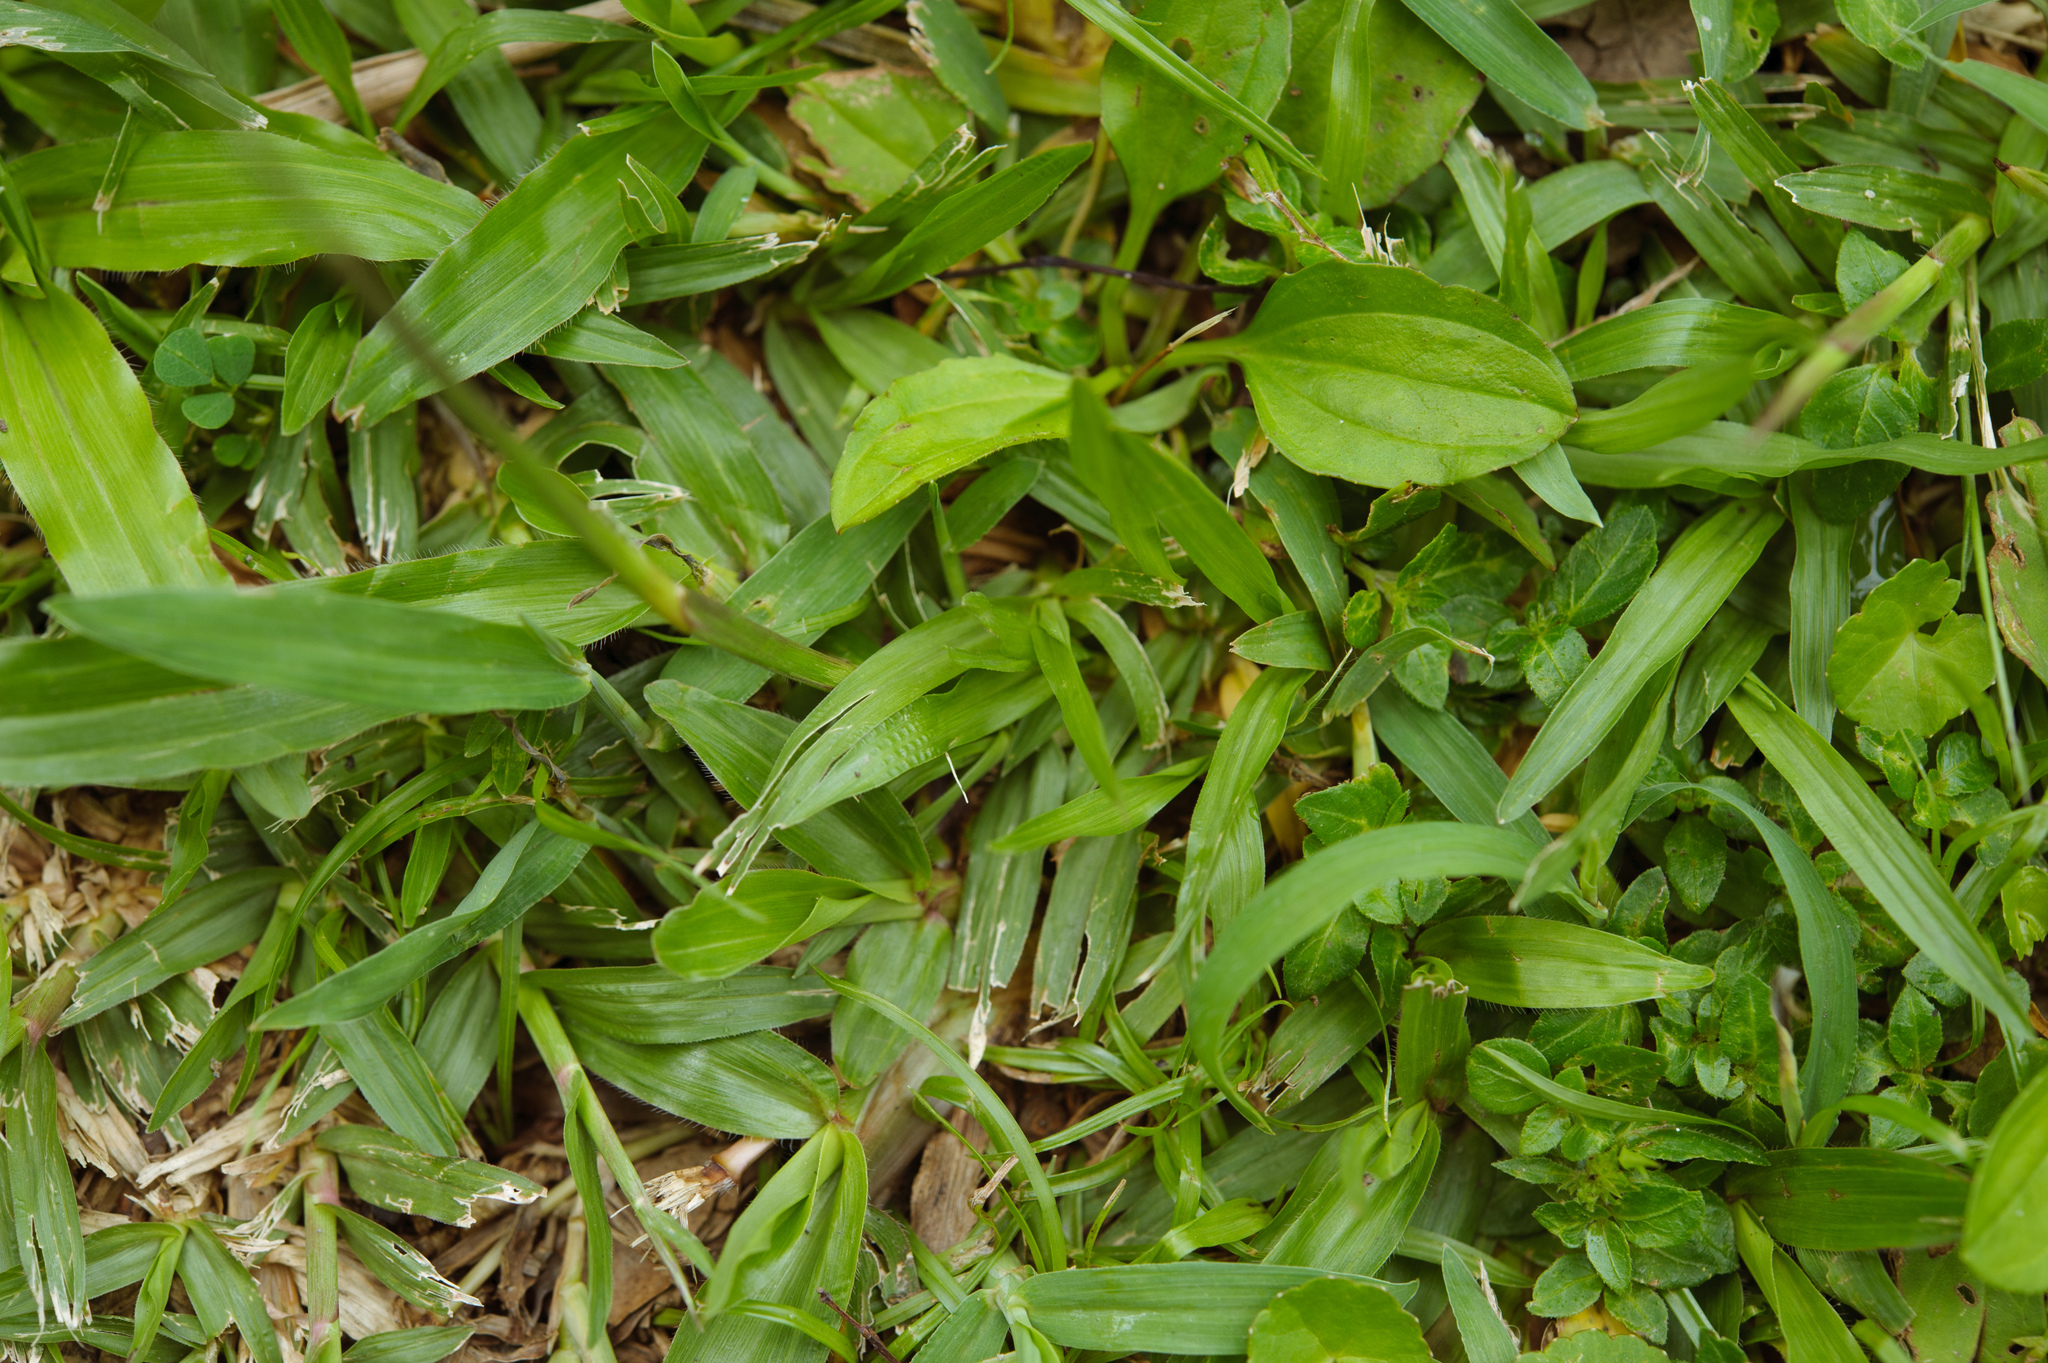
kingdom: Plantae
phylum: Tracheophyta
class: Liliopsida
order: Poales
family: Poaceae
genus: Chrysopogon
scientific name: Chrysopogon aciculatus
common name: Pilipiliula
